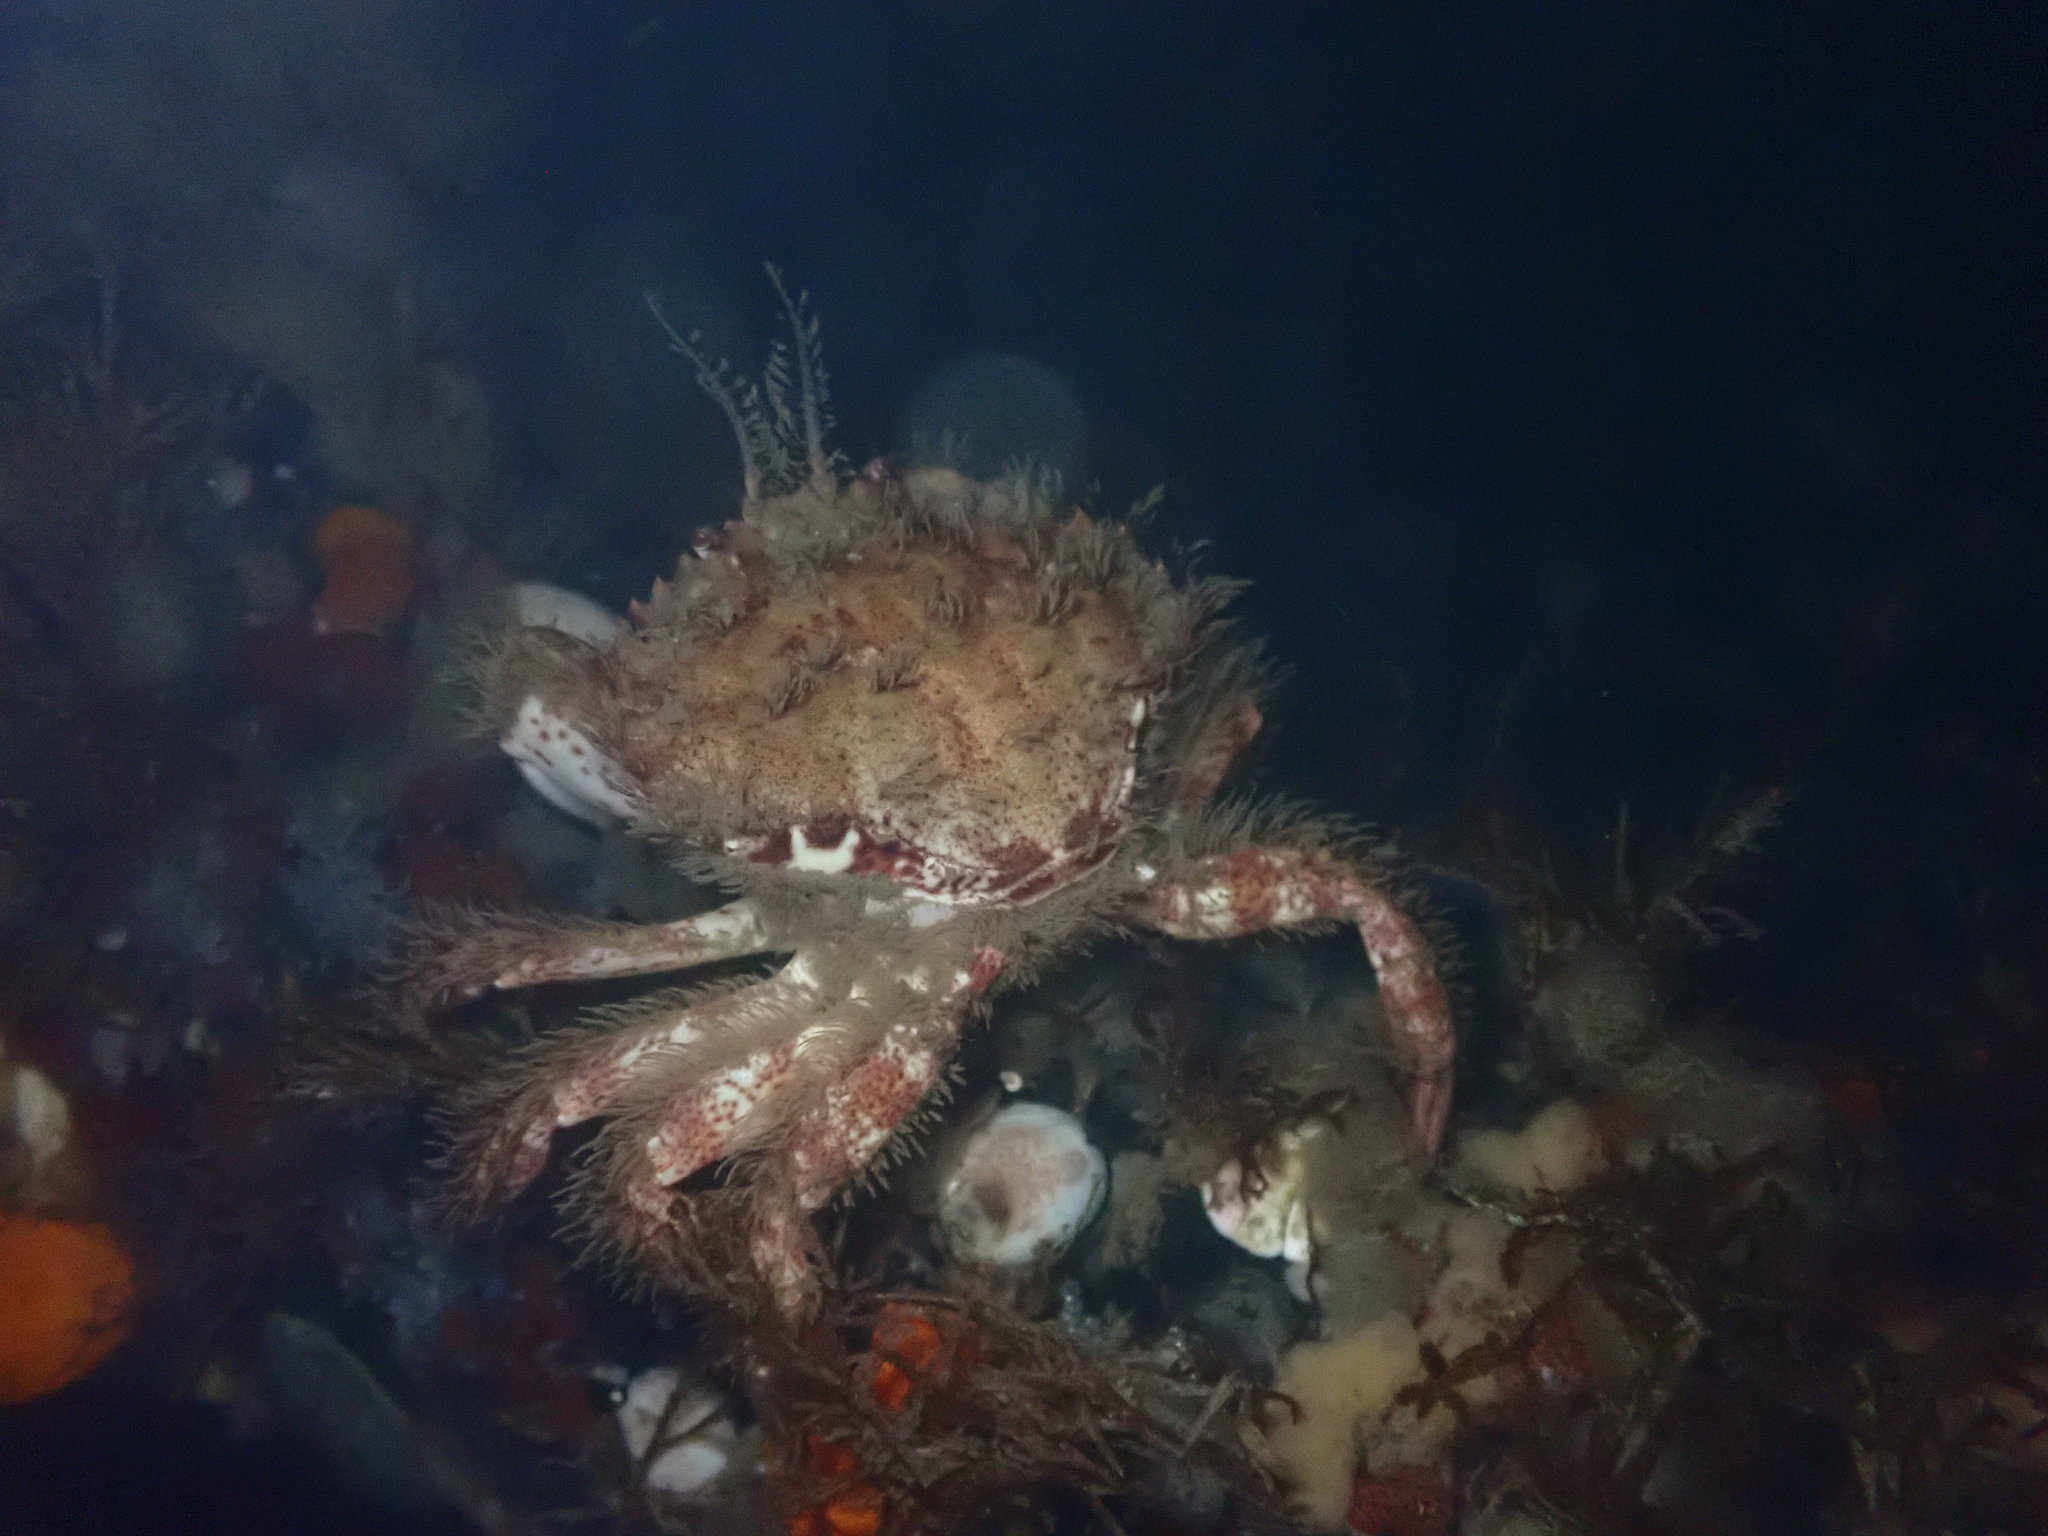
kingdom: Animalia
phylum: Arthropoda
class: Malacostraca
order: Decapoda
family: Cancridae
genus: Romaleon
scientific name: Romaleon antennarium
